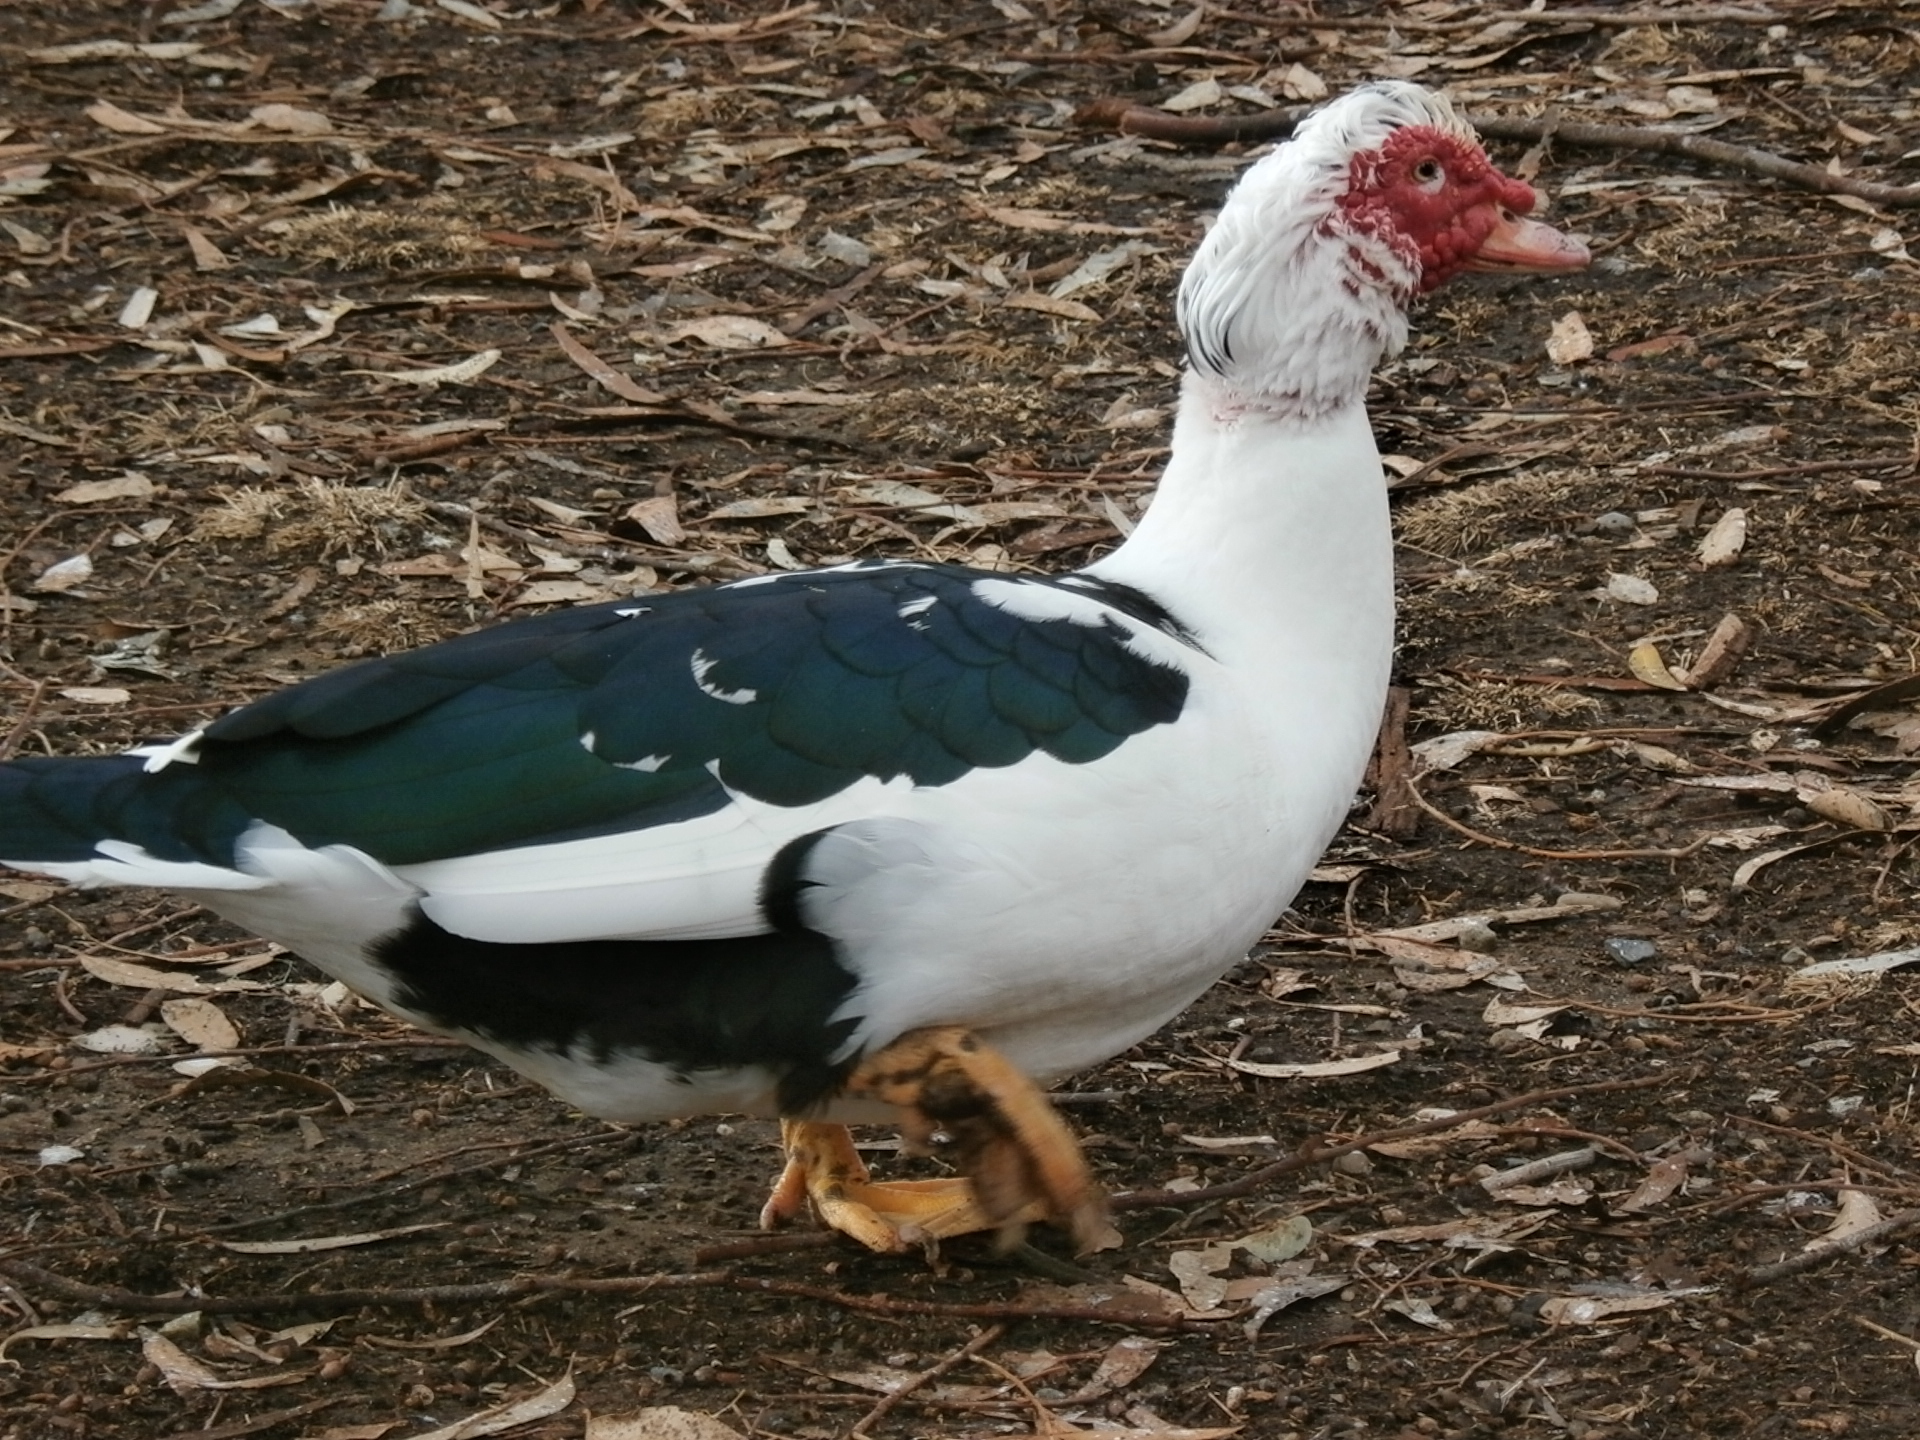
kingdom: Animalia
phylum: Chordata
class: Aves
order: Anseriformes
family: Anatidae
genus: Cairina
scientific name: Cairina moschata
